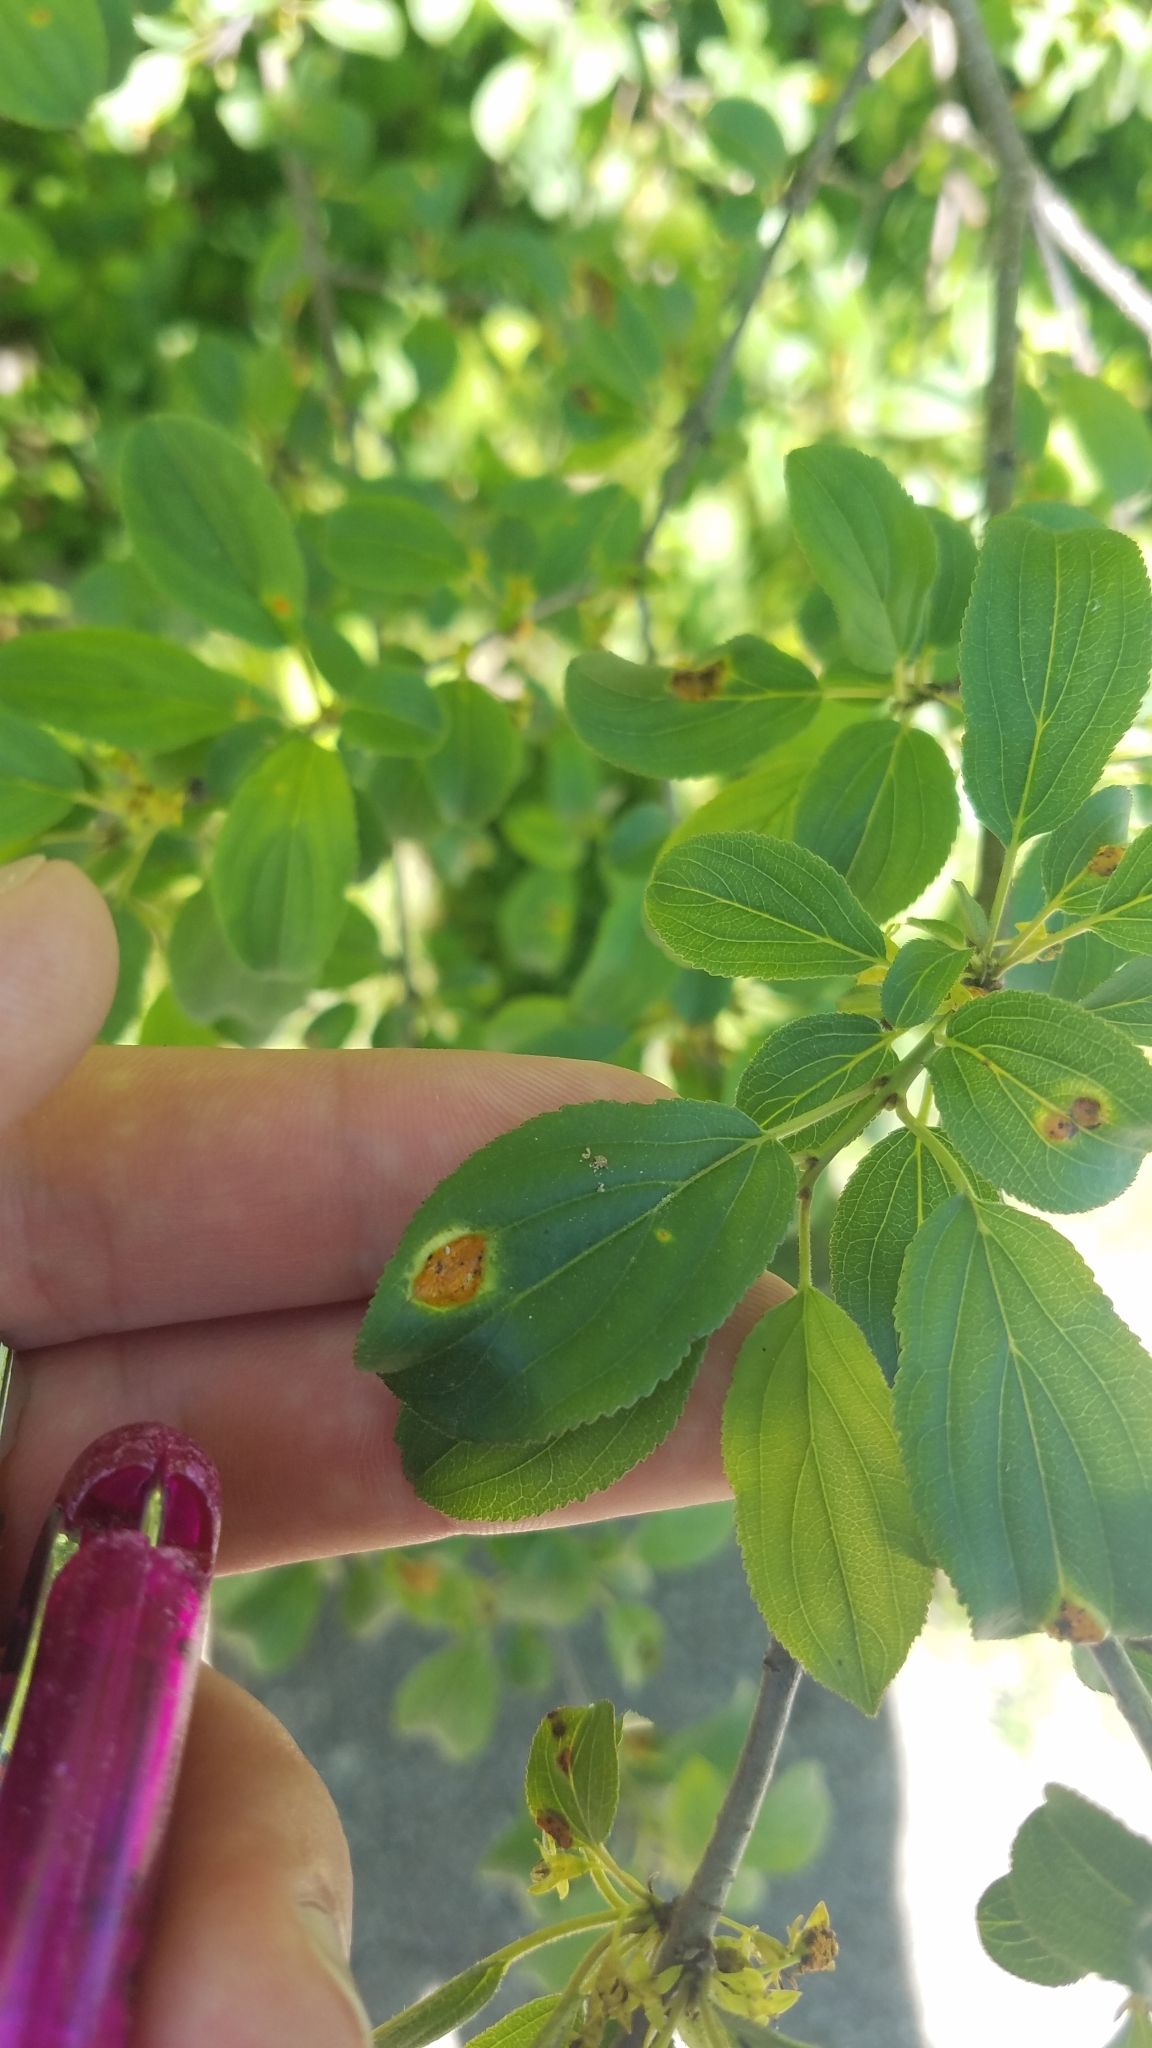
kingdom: Plantae
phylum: Tracheophyta
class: Magnoliopsida
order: Rosales
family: Rhamnaceae
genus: Rhamnus
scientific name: Rhamnus cathartica
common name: Common buckthorn
